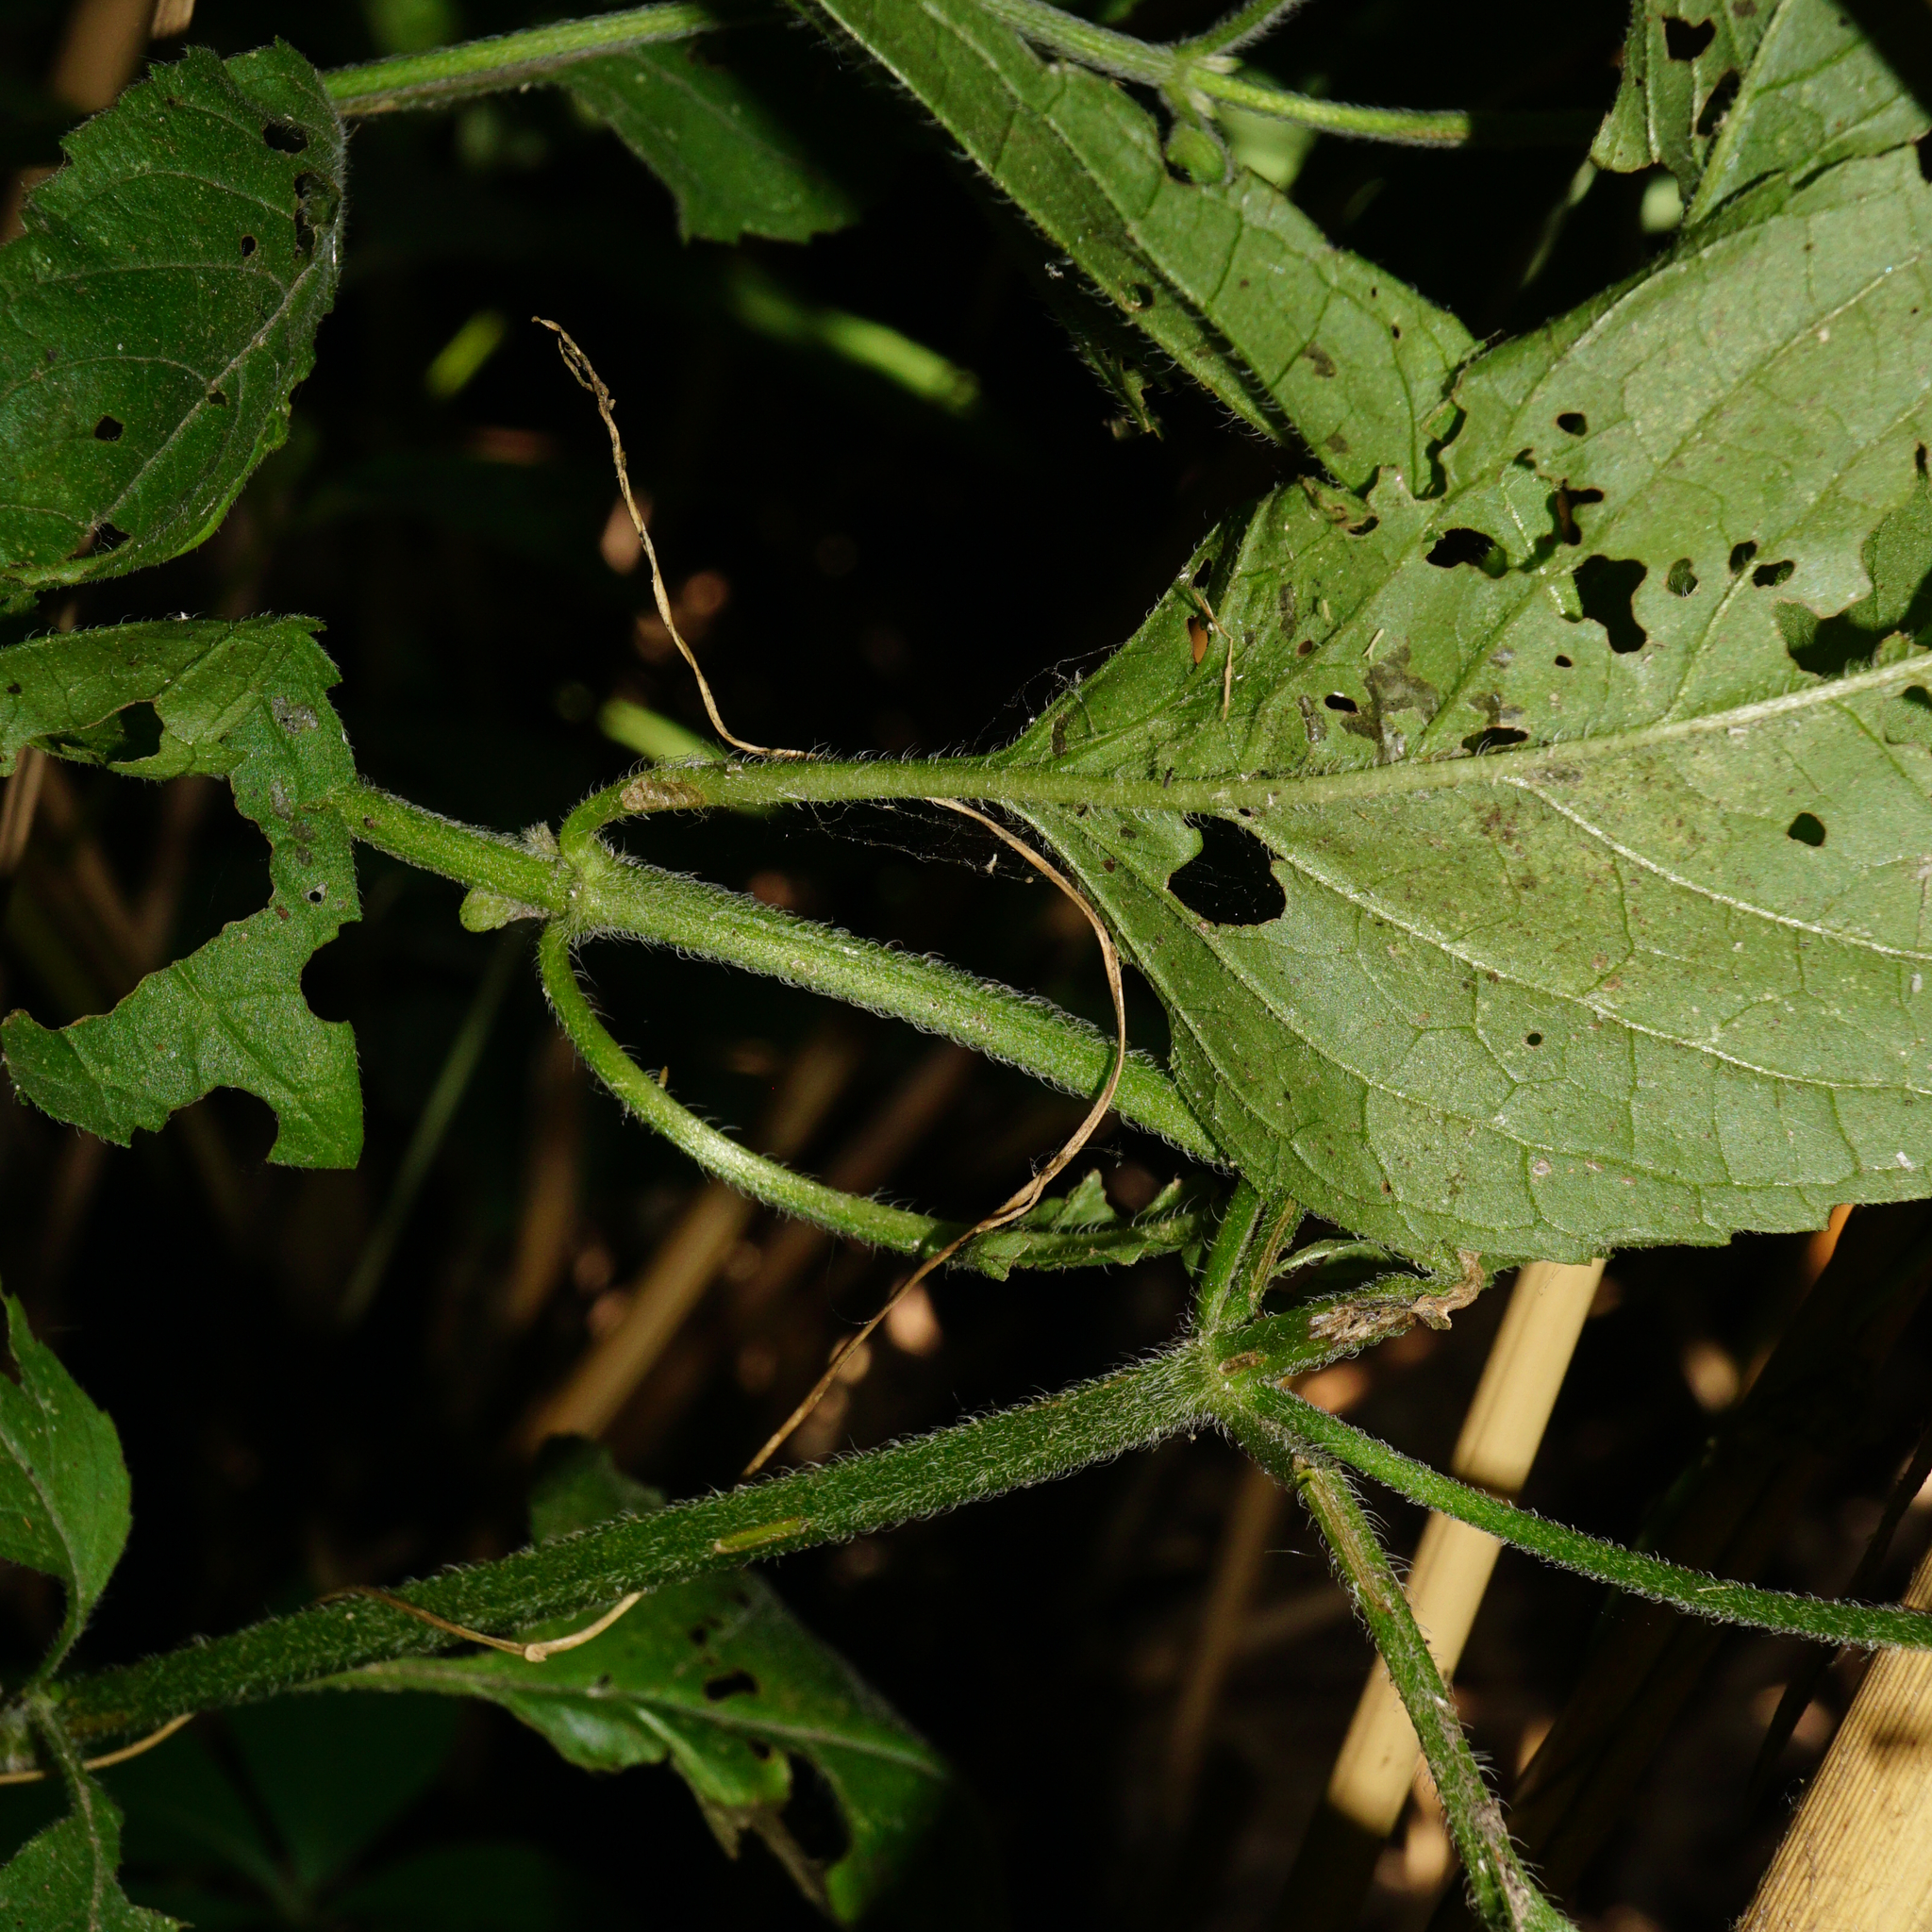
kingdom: Plantae
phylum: Tracheophyta
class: Magnoliopsida
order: Lamiales
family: Lamiaceae
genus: Mentha
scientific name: Mentha aquatica
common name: Water mint
